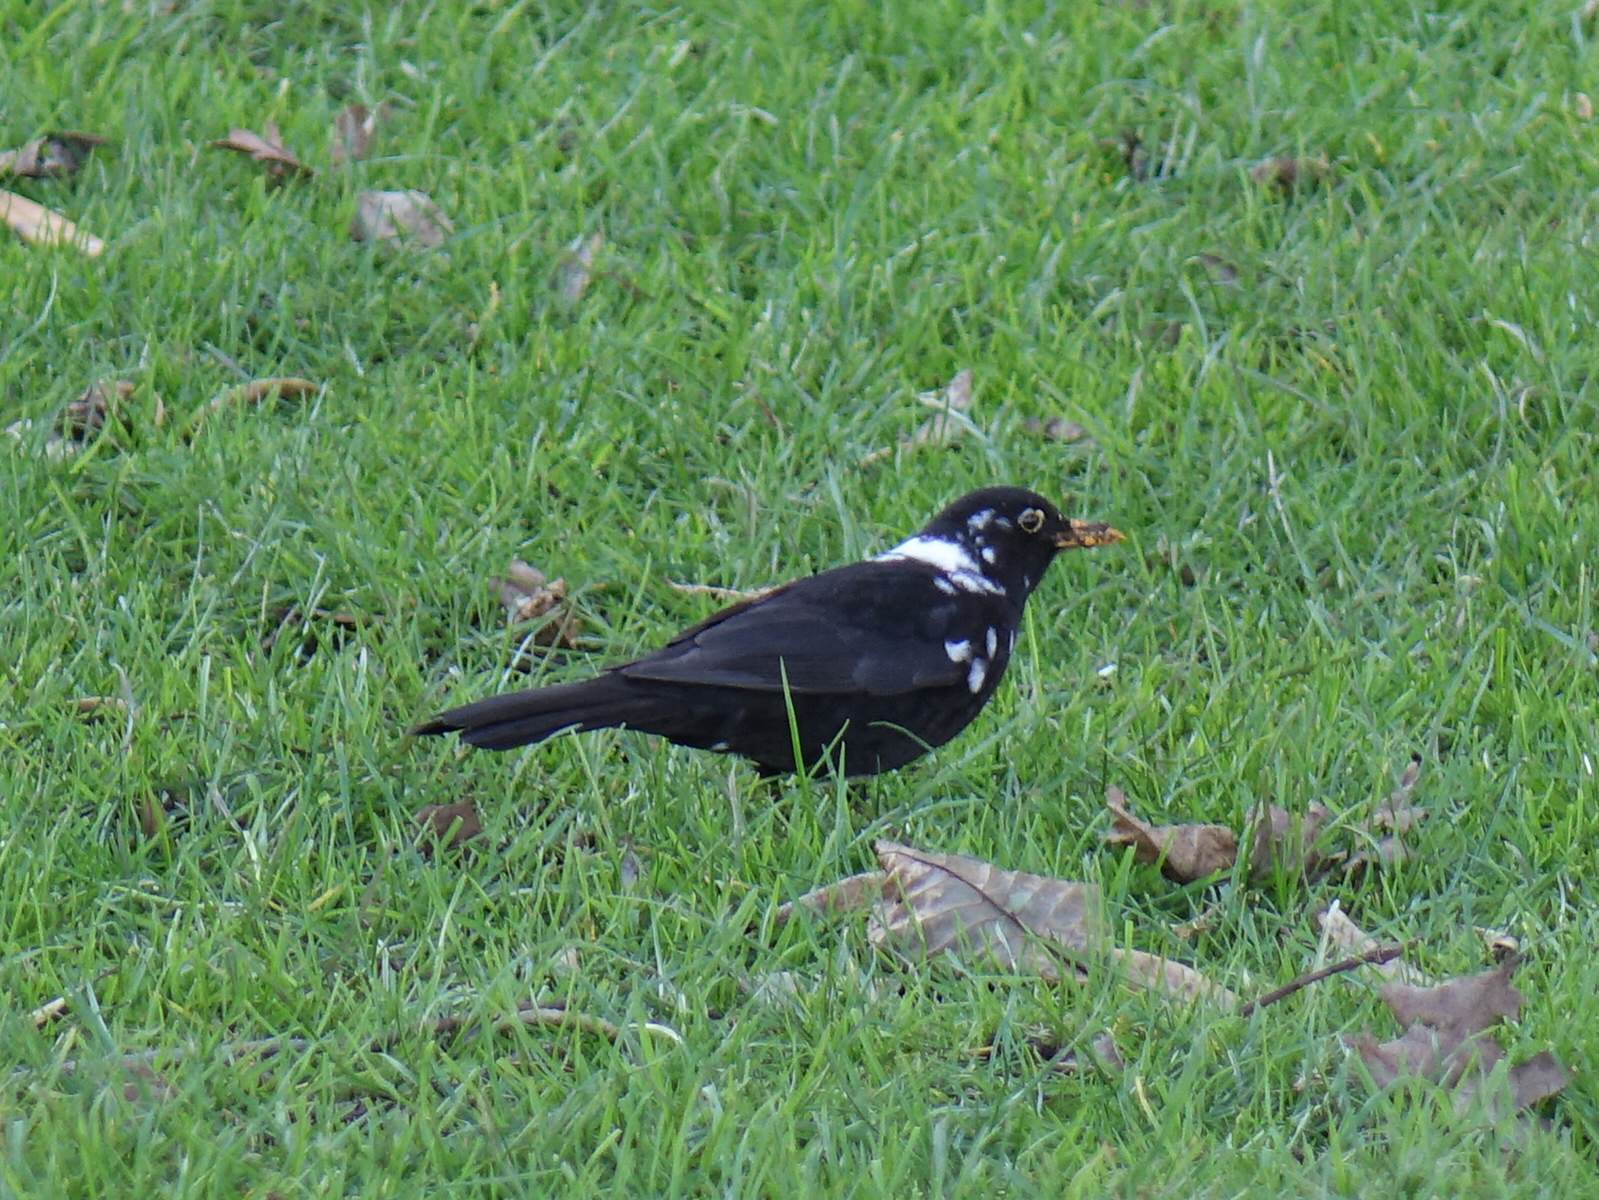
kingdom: Animalia
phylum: Chordata
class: Aves
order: Passeriformes
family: Turdidae
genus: Turdus
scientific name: Turdus merula
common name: Common blackbird
